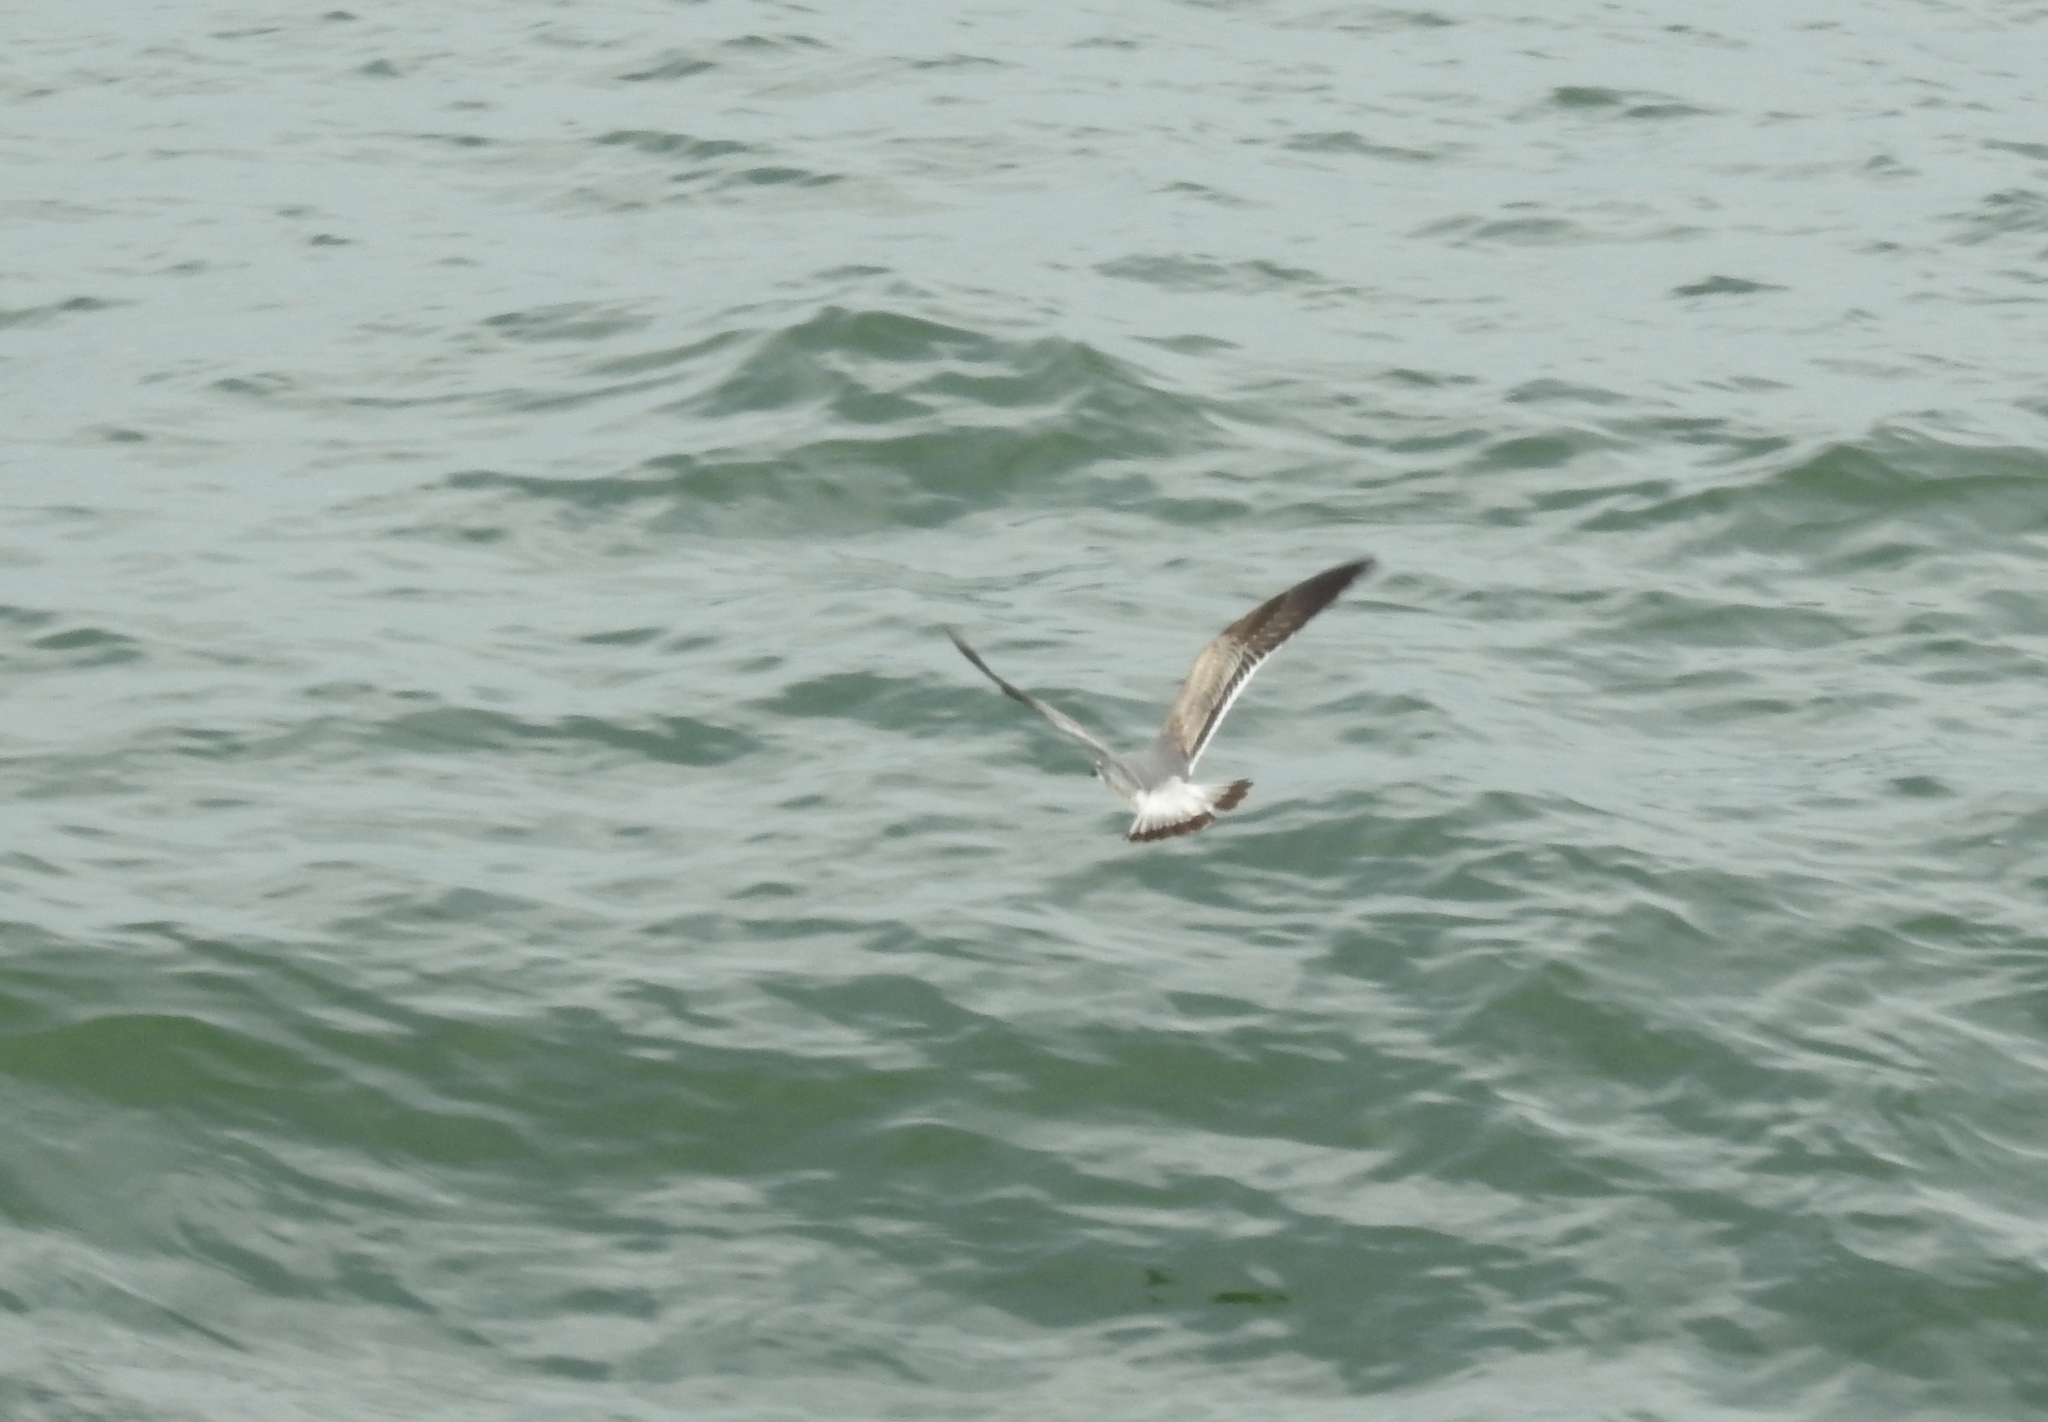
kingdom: Animalia
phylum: Chordata
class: Aves
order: Charadriiformes
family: Laridae
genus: Leucophaeus
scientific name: Leucophaeus atricilla
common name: Laughing gull
